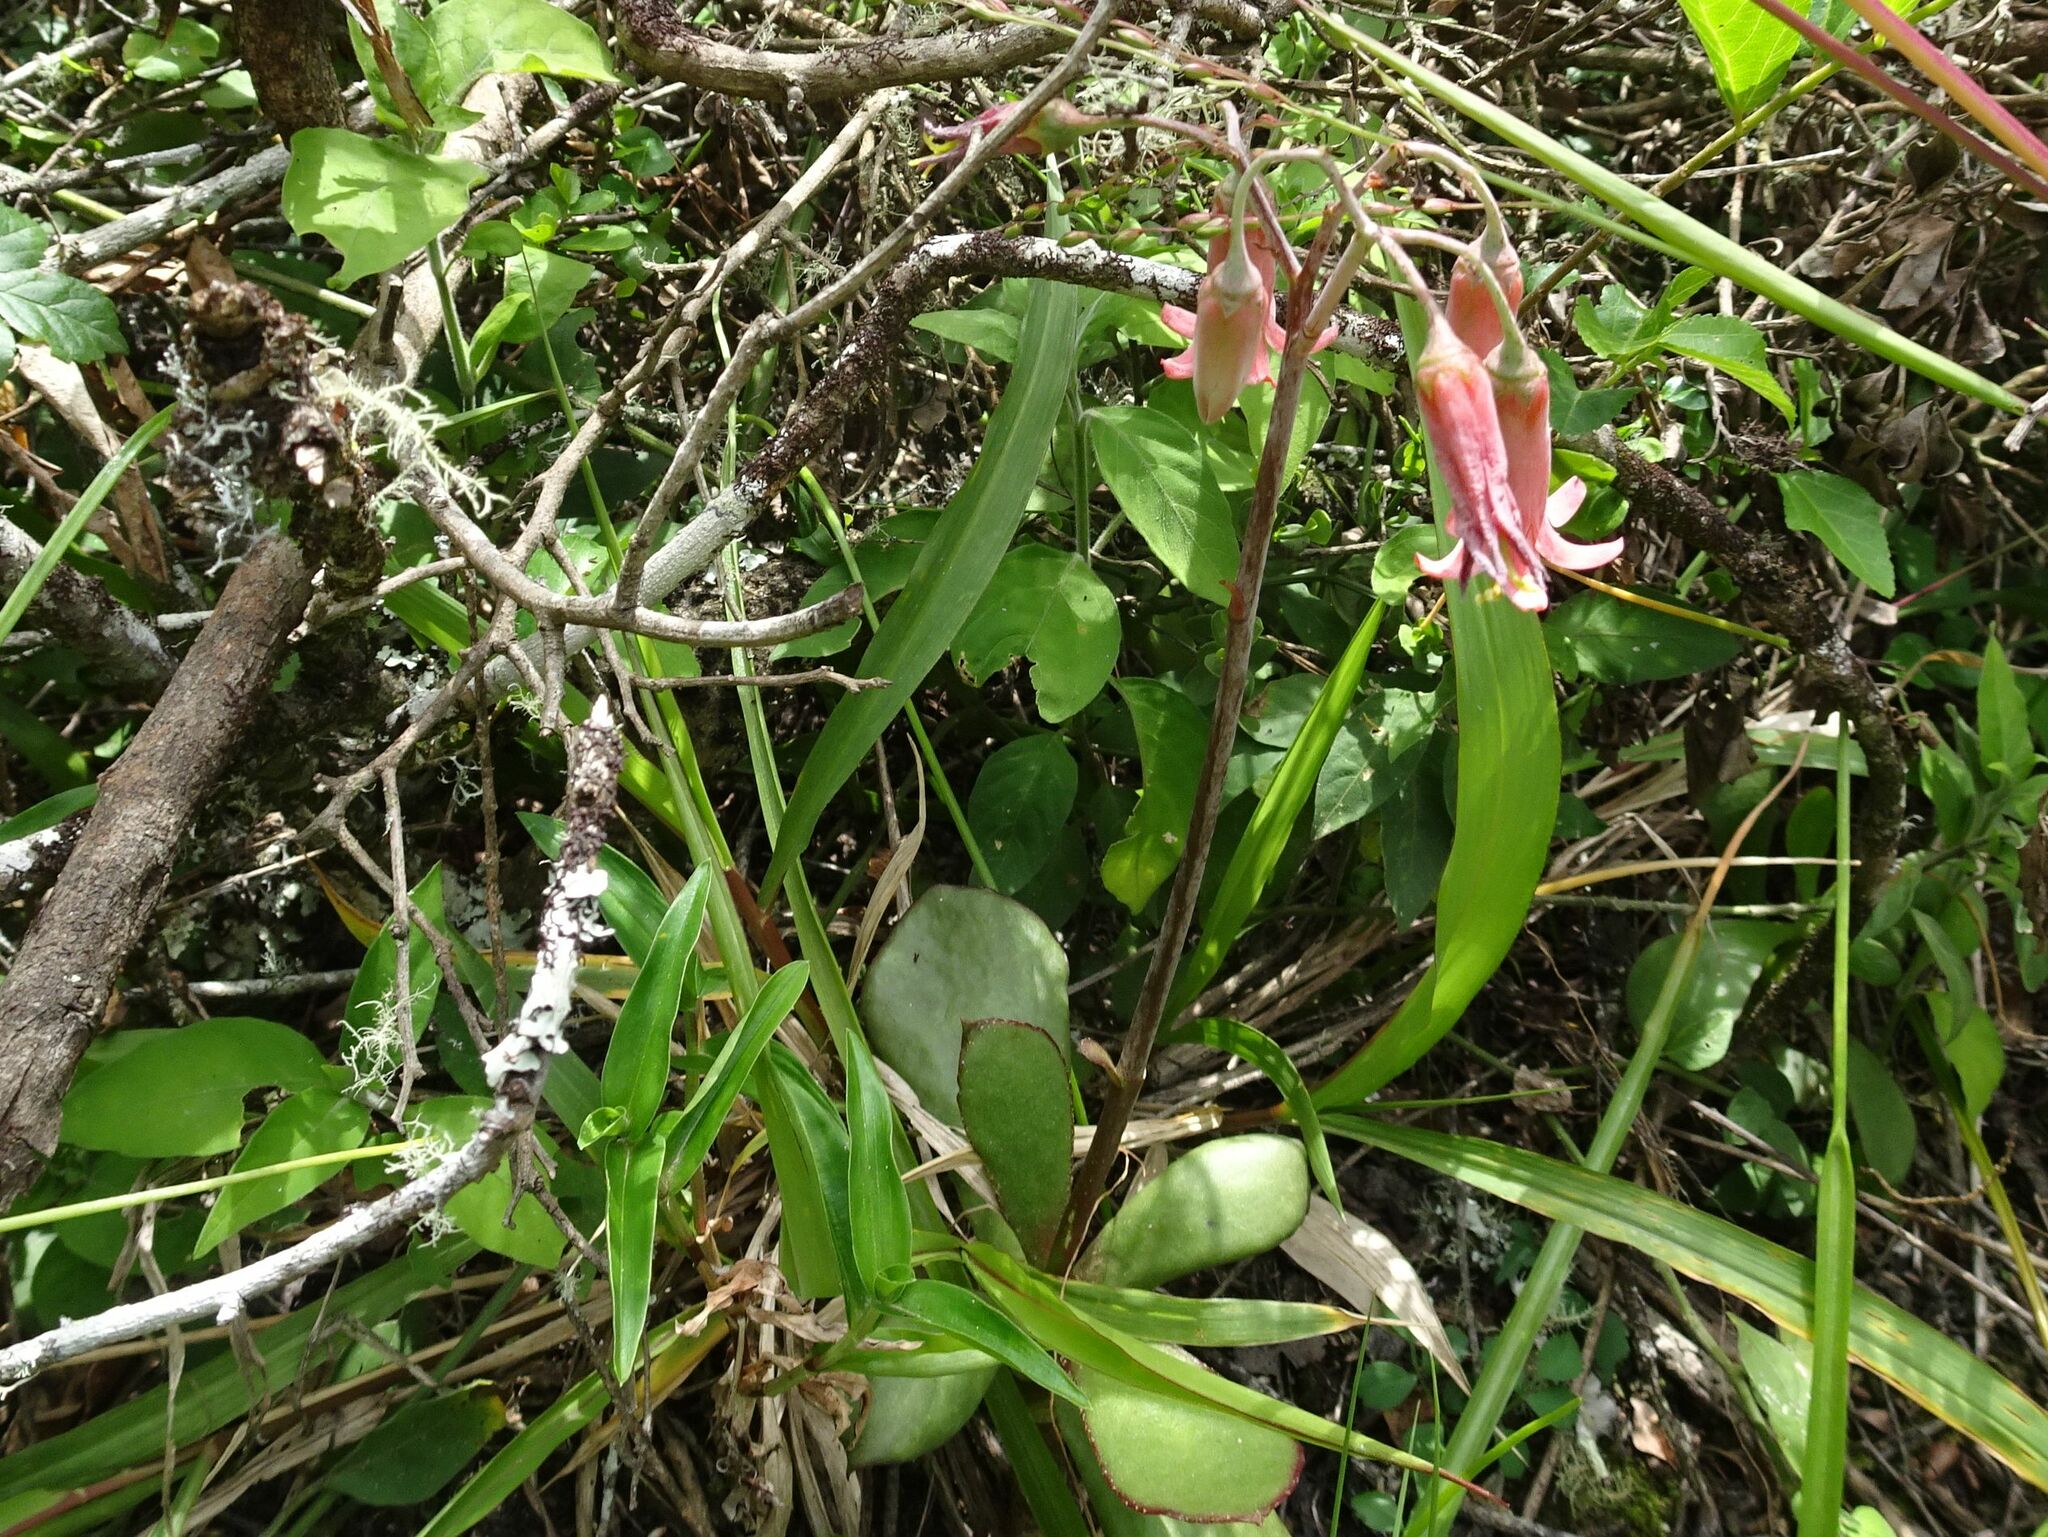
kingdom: Plantae
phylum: Tracheophyta
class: Magnoliopsida
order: Saxifragales
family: Crassulaceae
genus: Cotyledon
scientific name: Cotyledon orbiculata
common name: Pig's ear
